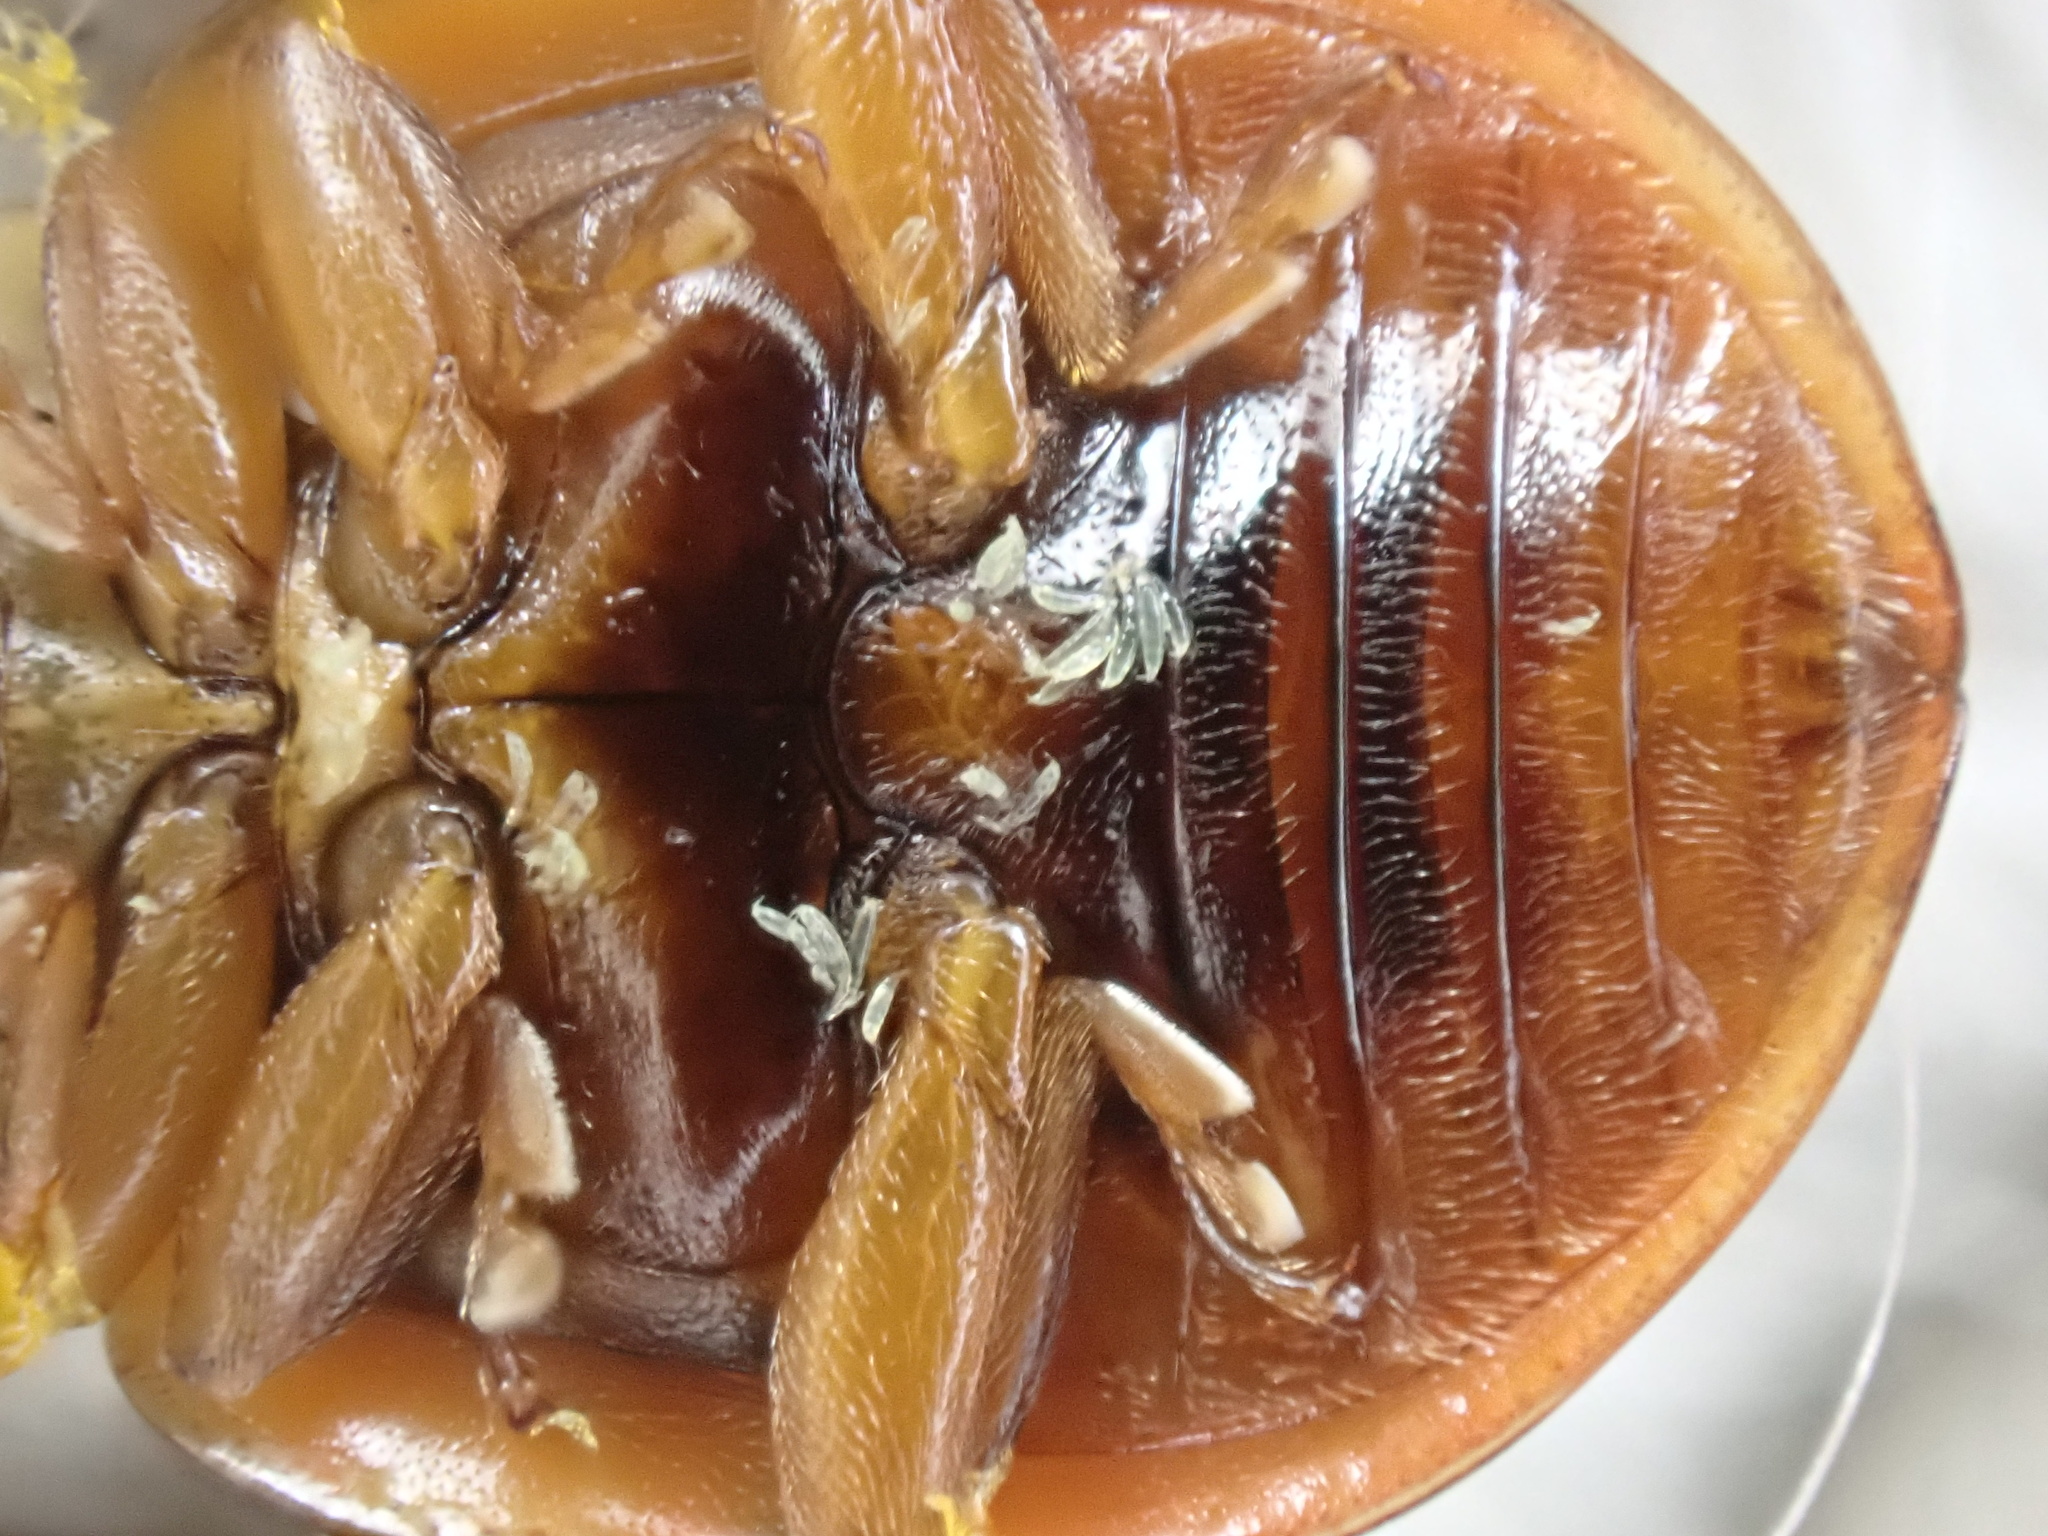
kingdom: Fungi
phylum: Ascomycota
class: Laboulbeniomycetes
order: Laboulbeniales
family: Laboulbeniaceae
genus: Hesperomyces
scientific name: Hesperomyces harmoniae
